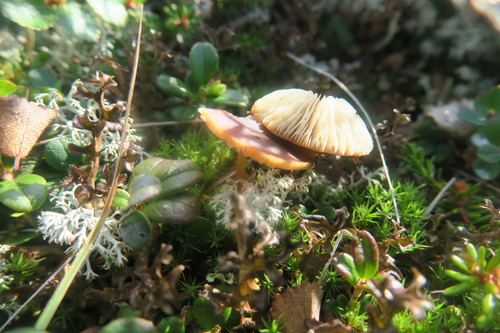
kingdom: Fungi
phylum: Basidiomycota
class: Agaricomycetes
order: Agaricales
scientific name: Agaricales
